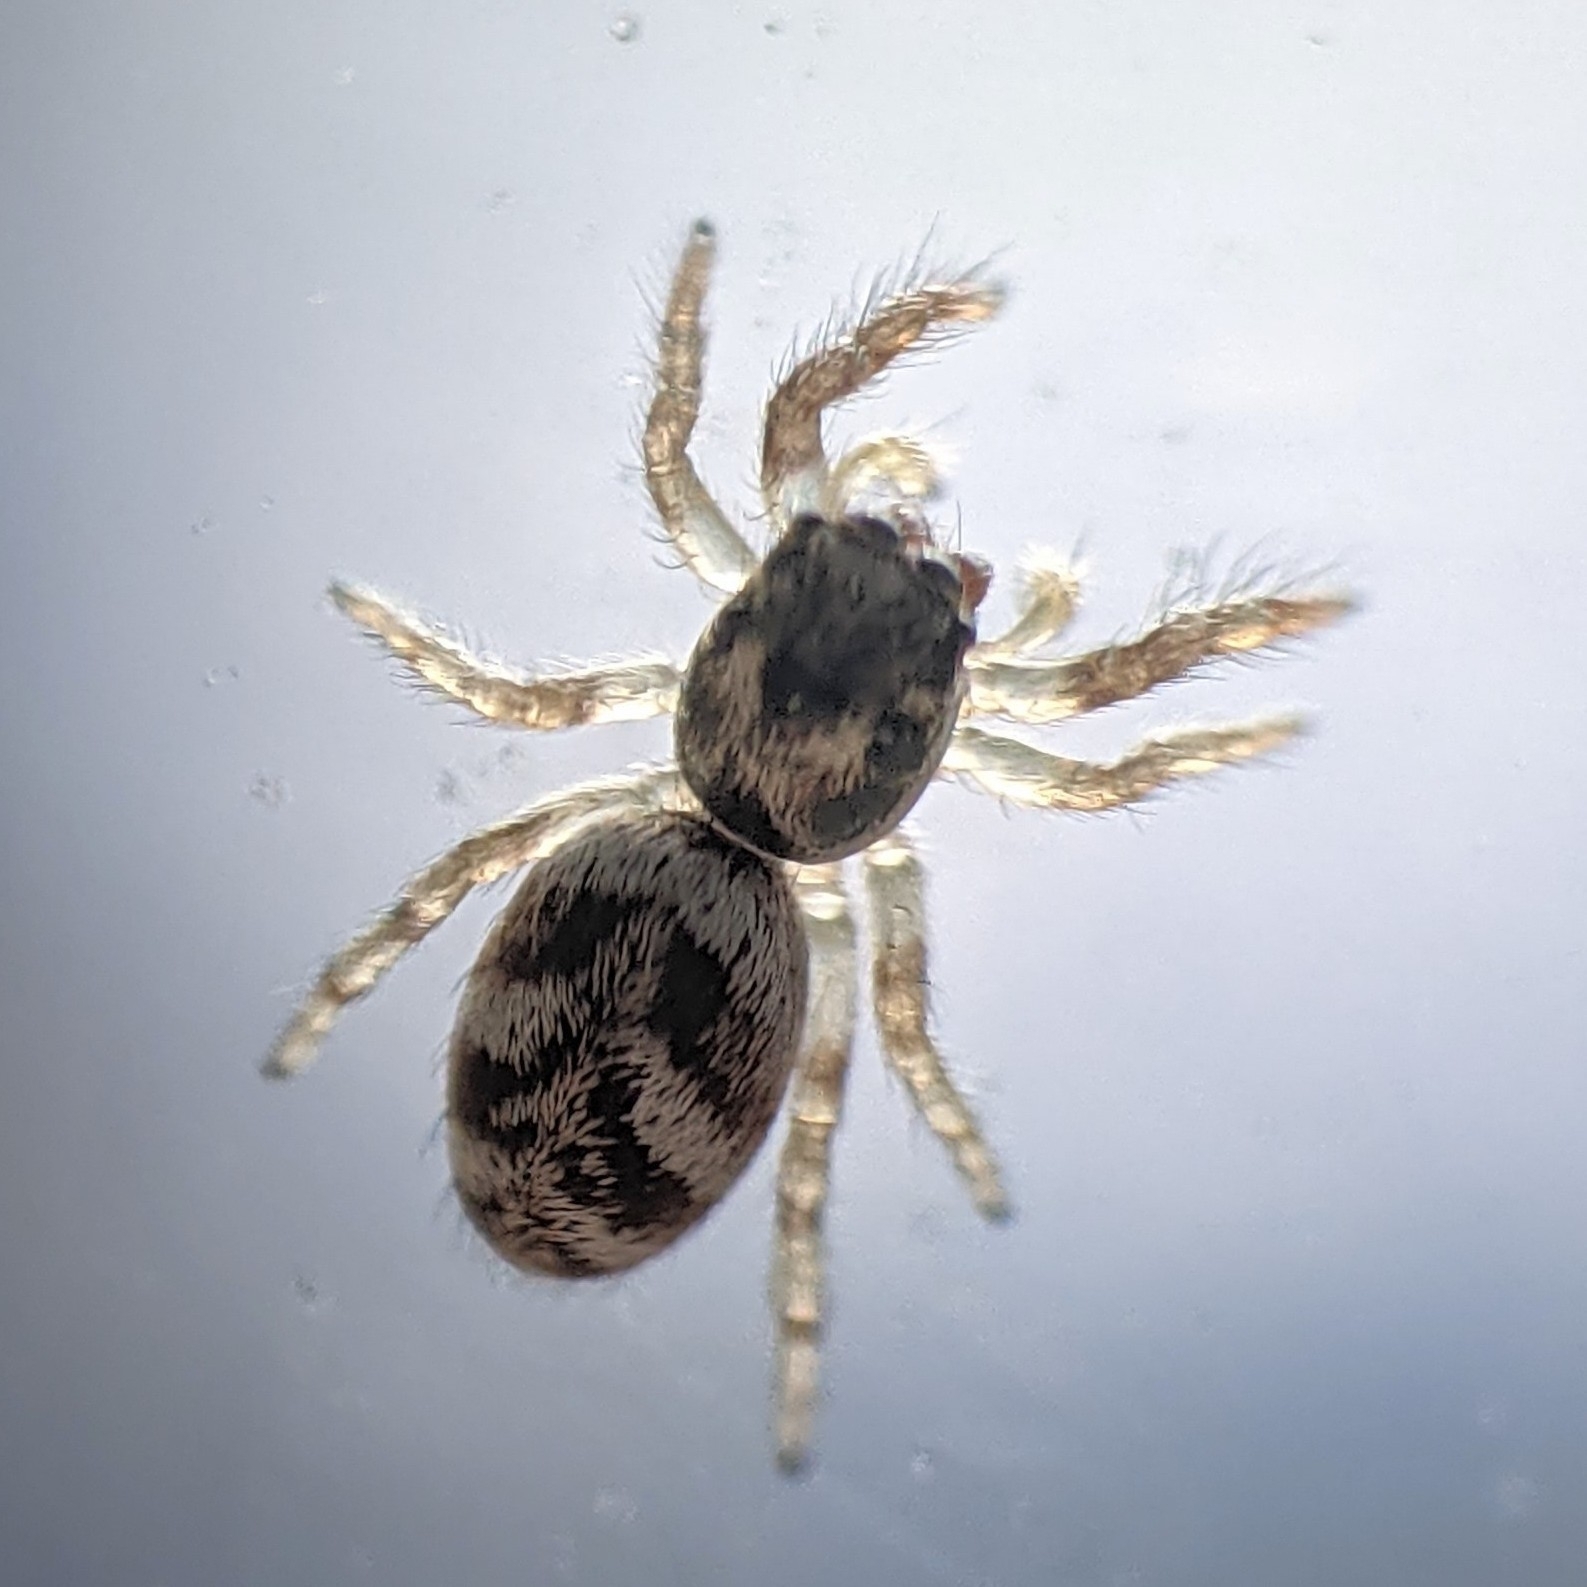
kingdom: Animalia
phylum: Arthropoda
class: Arachnida
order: Araneae
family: Salticidae
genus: Salticus
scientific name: Salticus scenicus
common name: Zebra jumper
